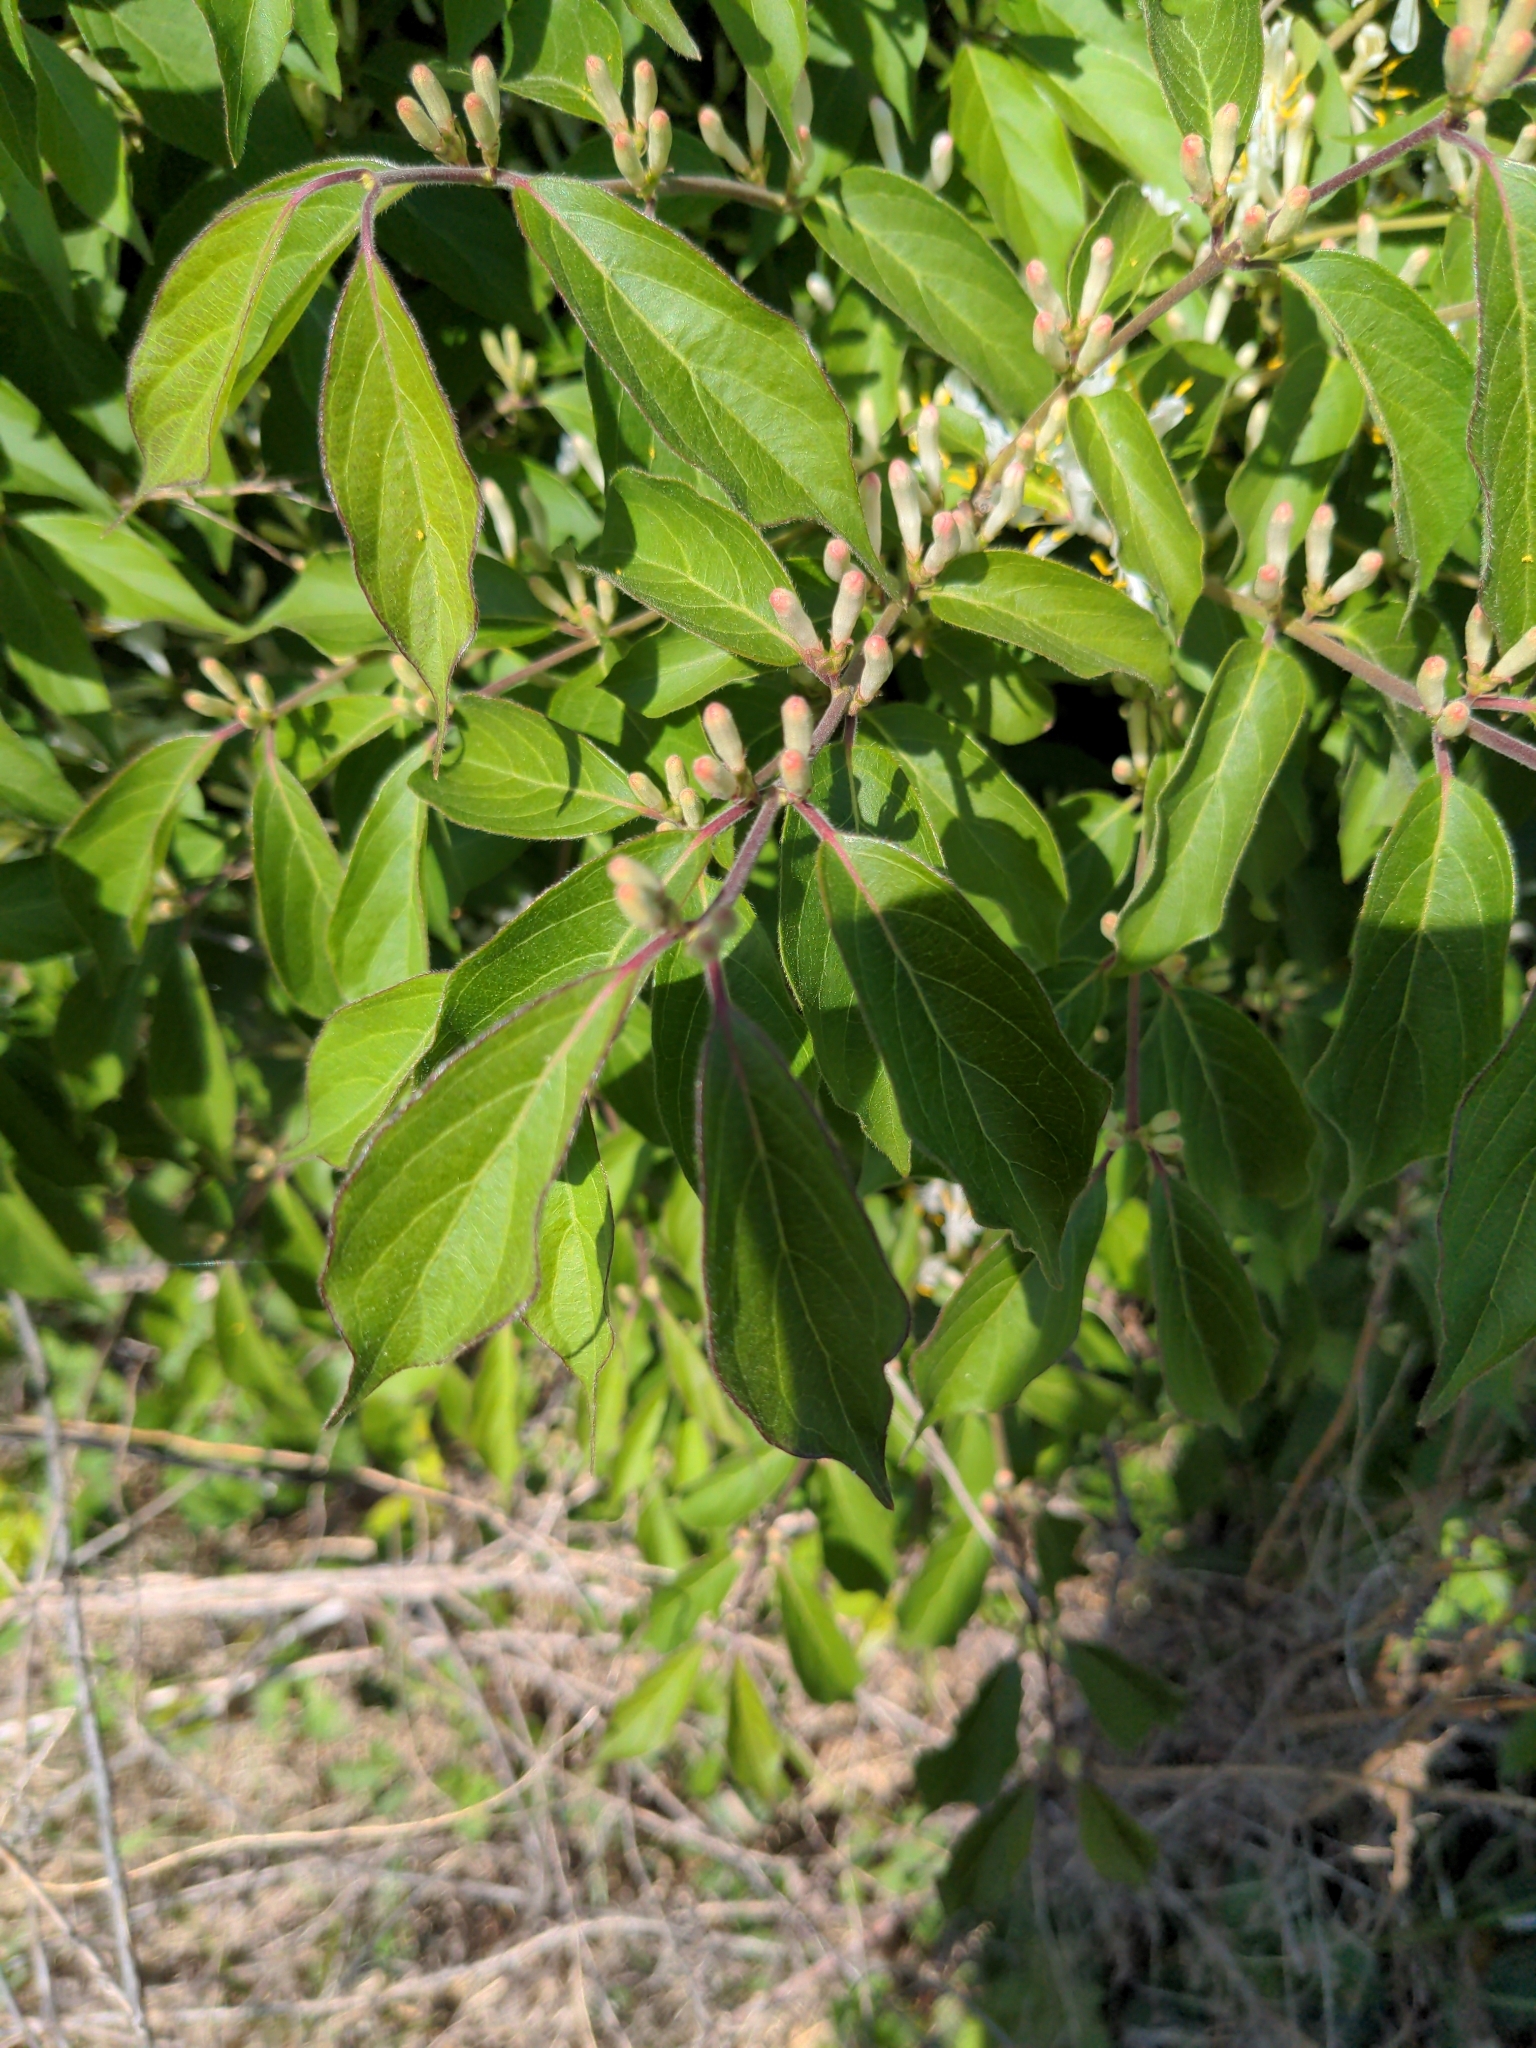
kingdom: Plantae
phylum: Tracheophyta
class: Magnoliopsida
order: Dipsacales
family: Caprifoliaceae
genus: Lonicera
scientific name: Lonicera maackii
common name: Amur honeysuckle
